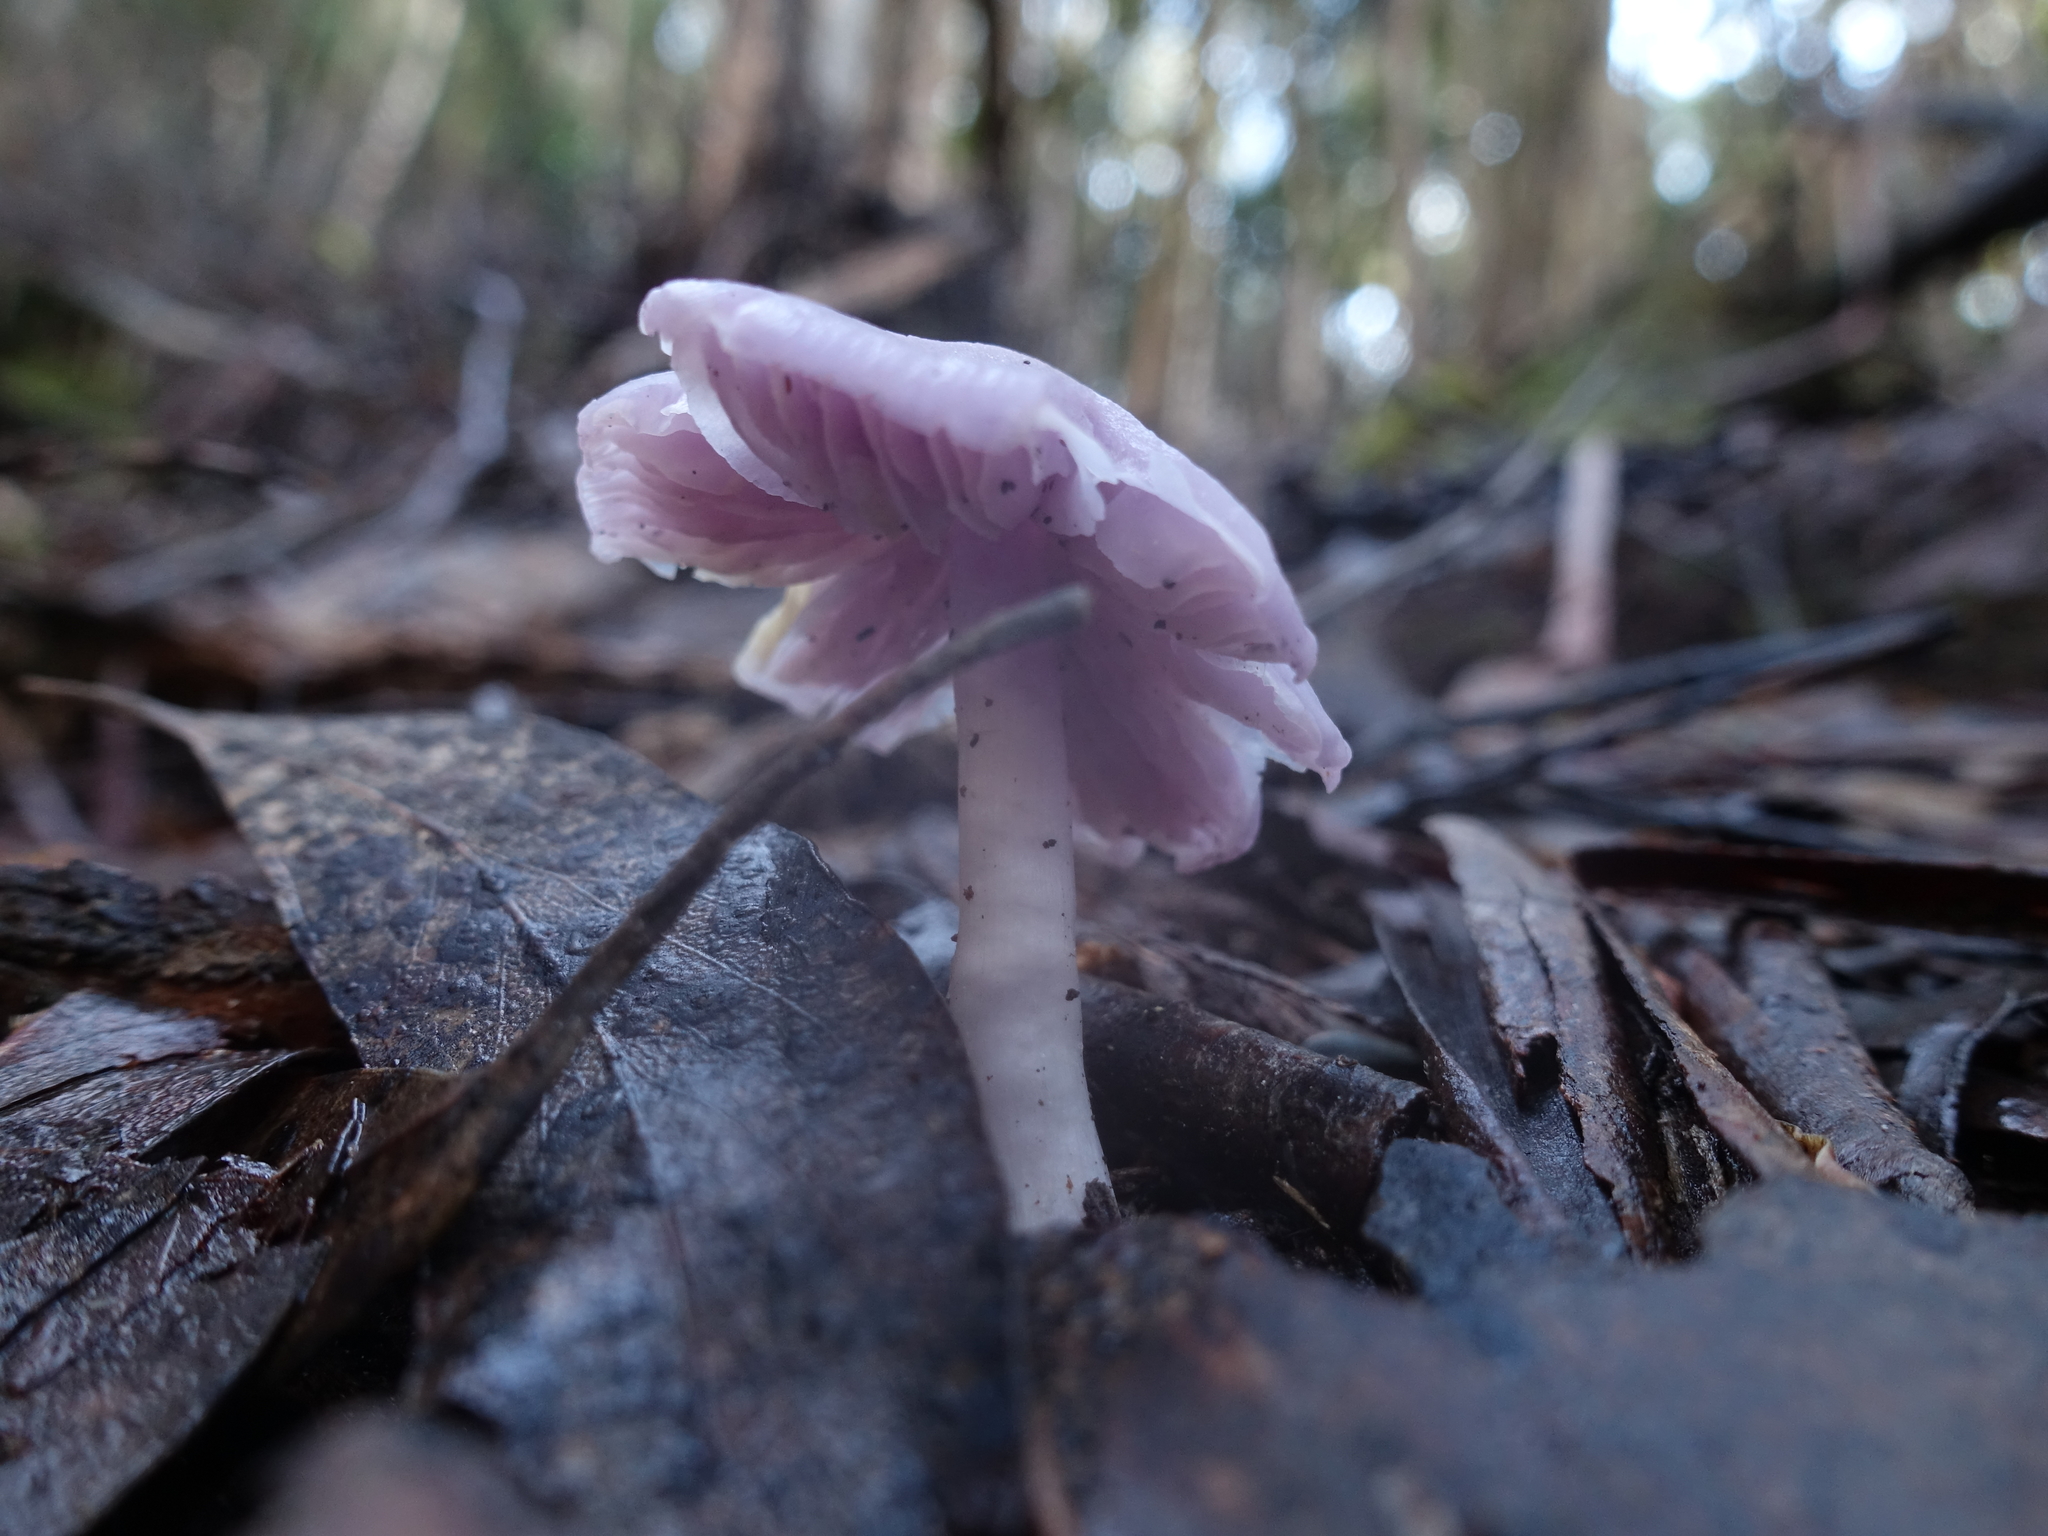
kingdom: Fungi
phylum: Basidiomycota
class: Agaricomycetes
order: Agaricales
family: Hygrophoraceae
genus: Porpolomopsis
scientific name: Porpolomopsis lewelliniae
